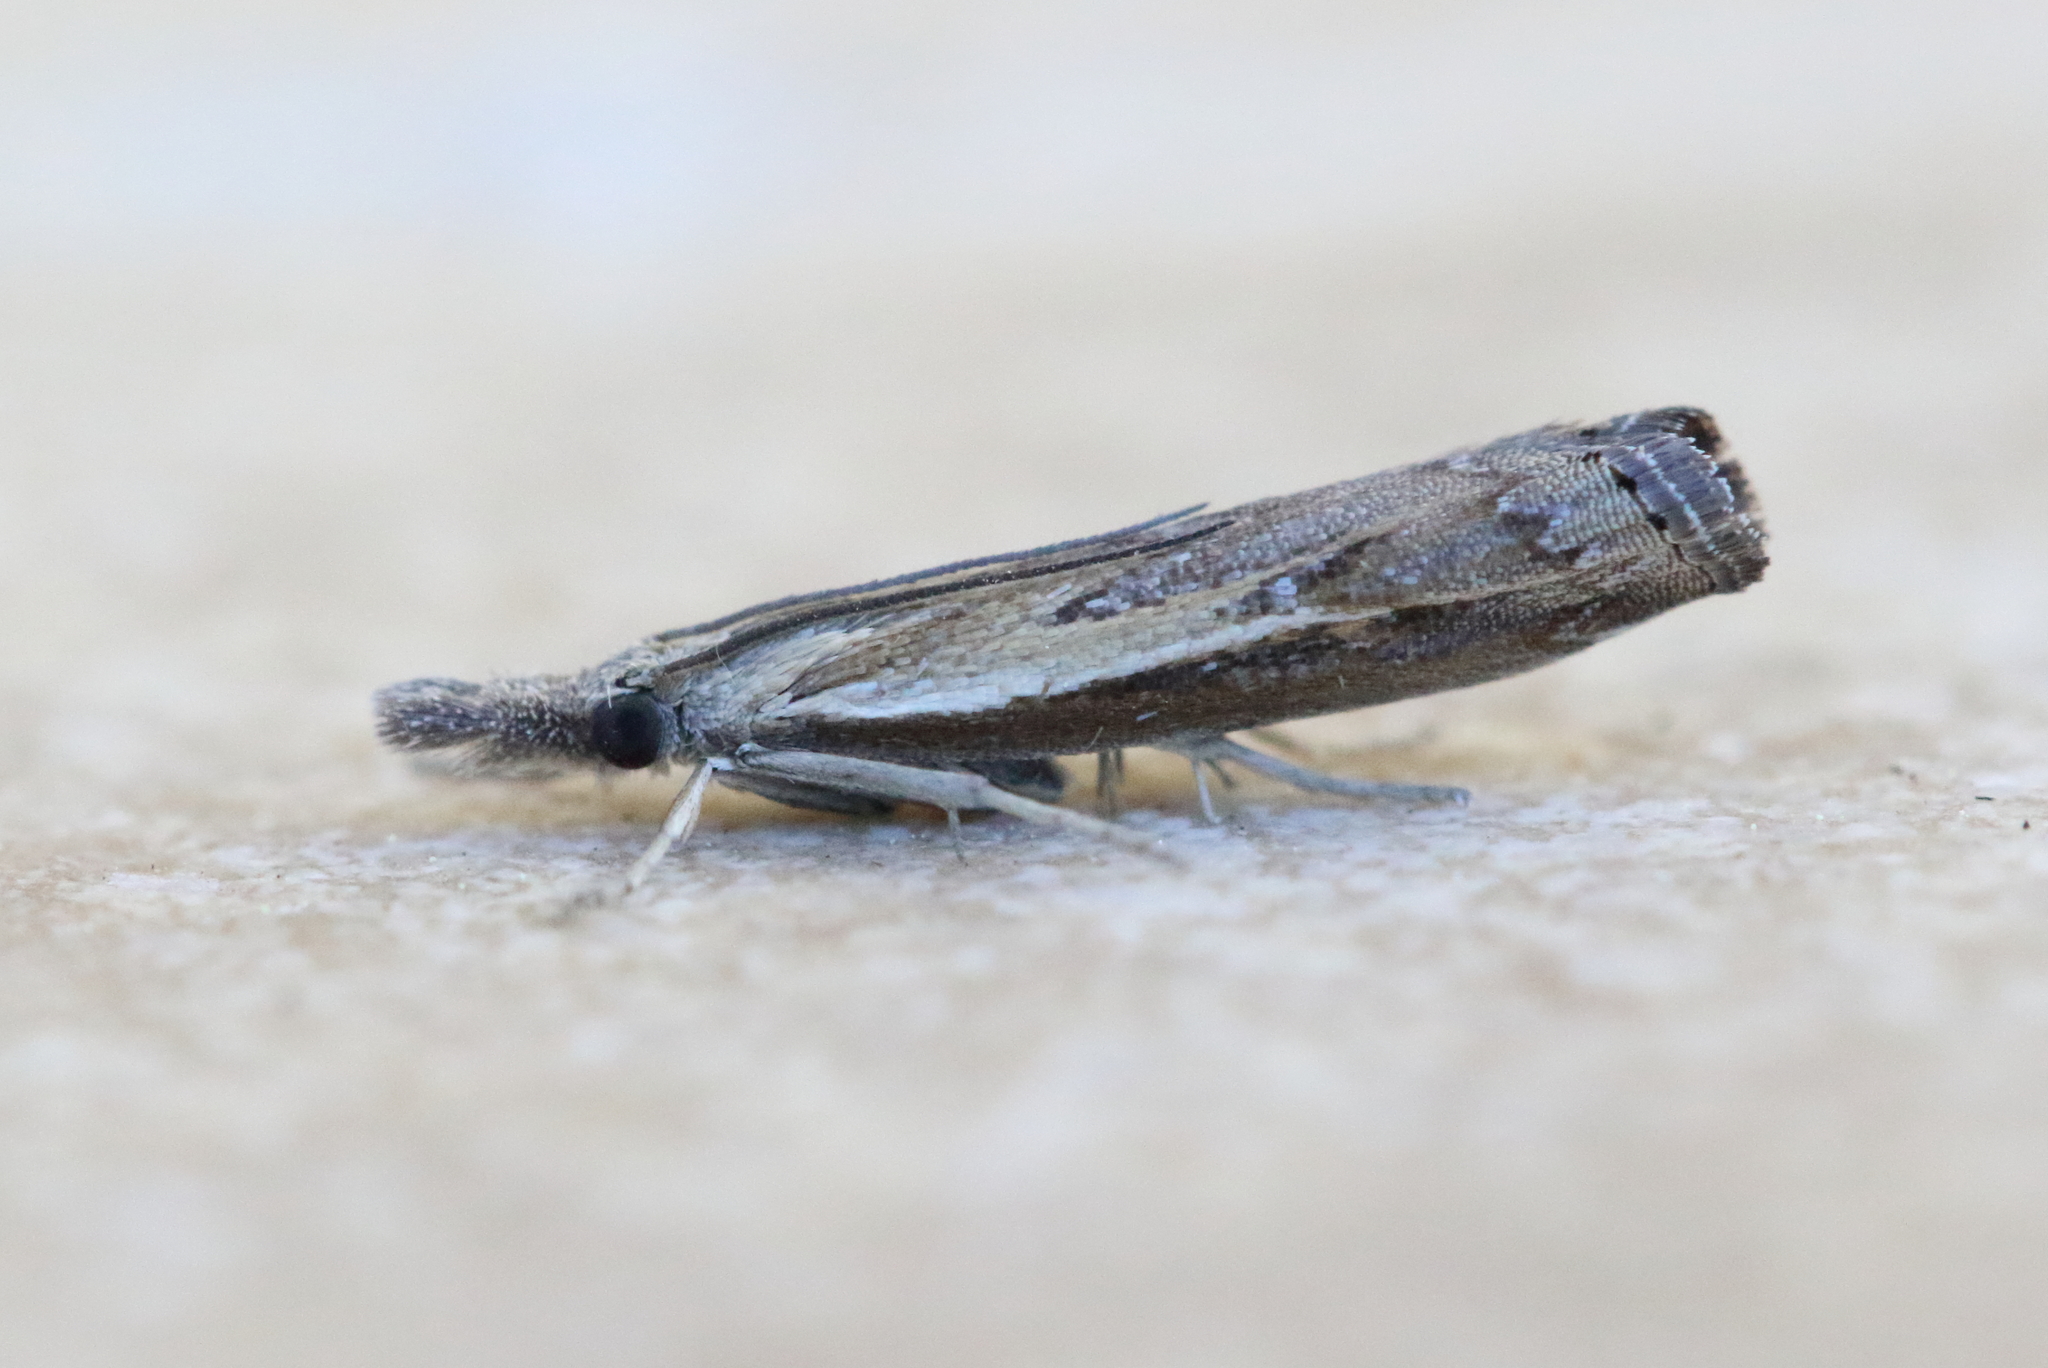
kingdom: Animalia
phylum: Arthropoda
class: Insecta
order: Lepidoptera
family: Crambidae
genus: Ptochostola
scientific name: Ptochostola microphaeellus
